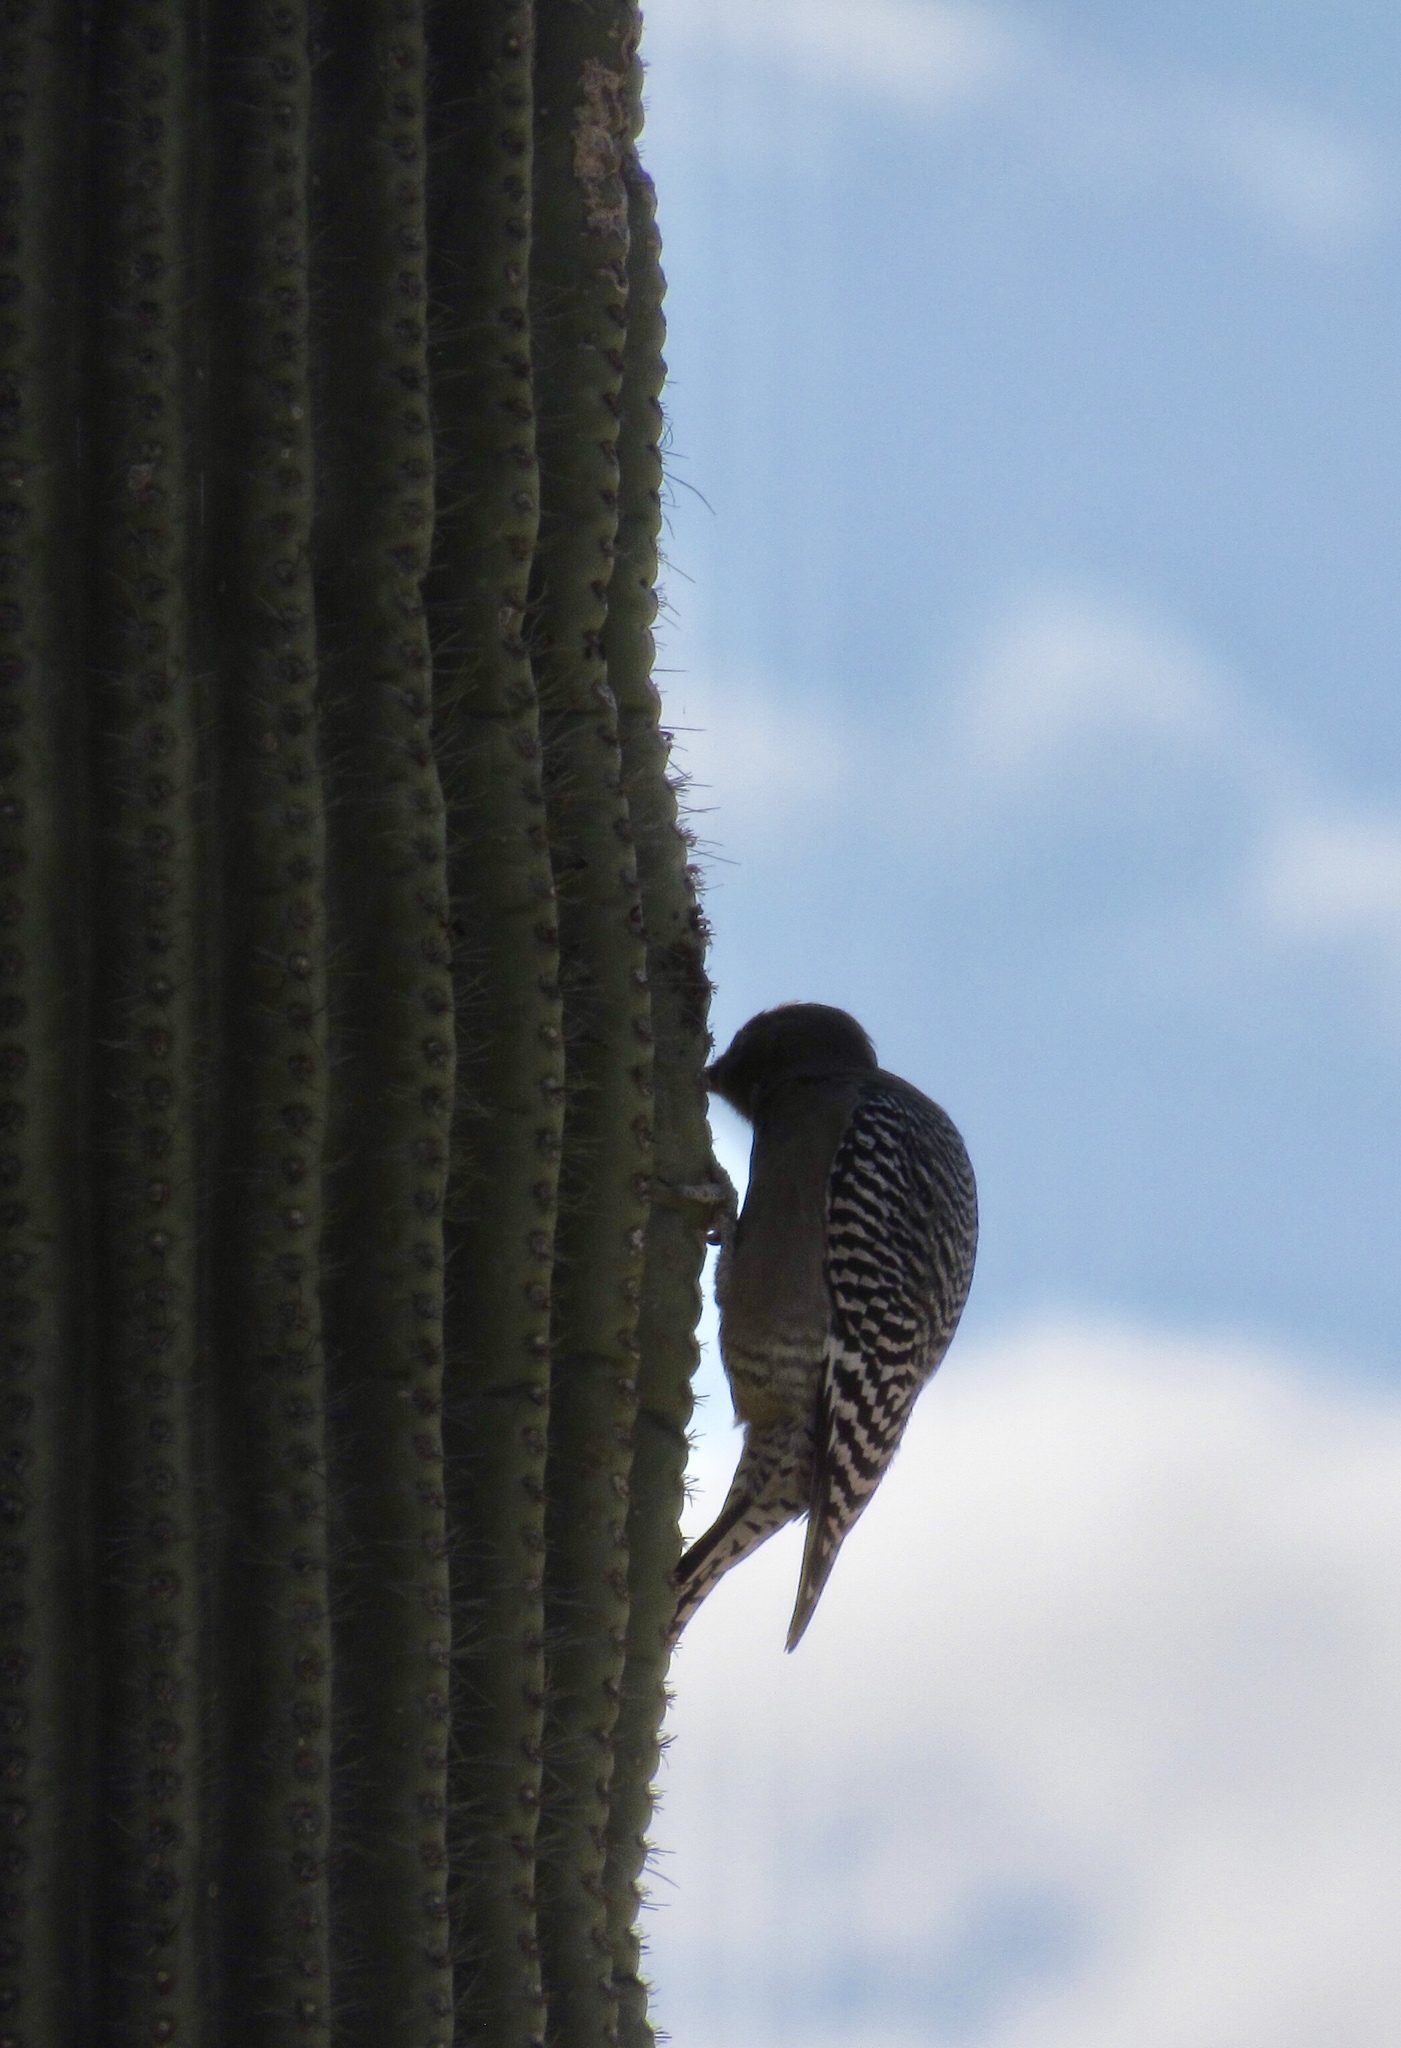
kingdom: Animalia
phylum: Chordata
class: Aves
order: Piciformes
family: Picidae
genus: Melanerpes
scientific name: Melanerpes uropygialis
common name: Gila woodpecker
